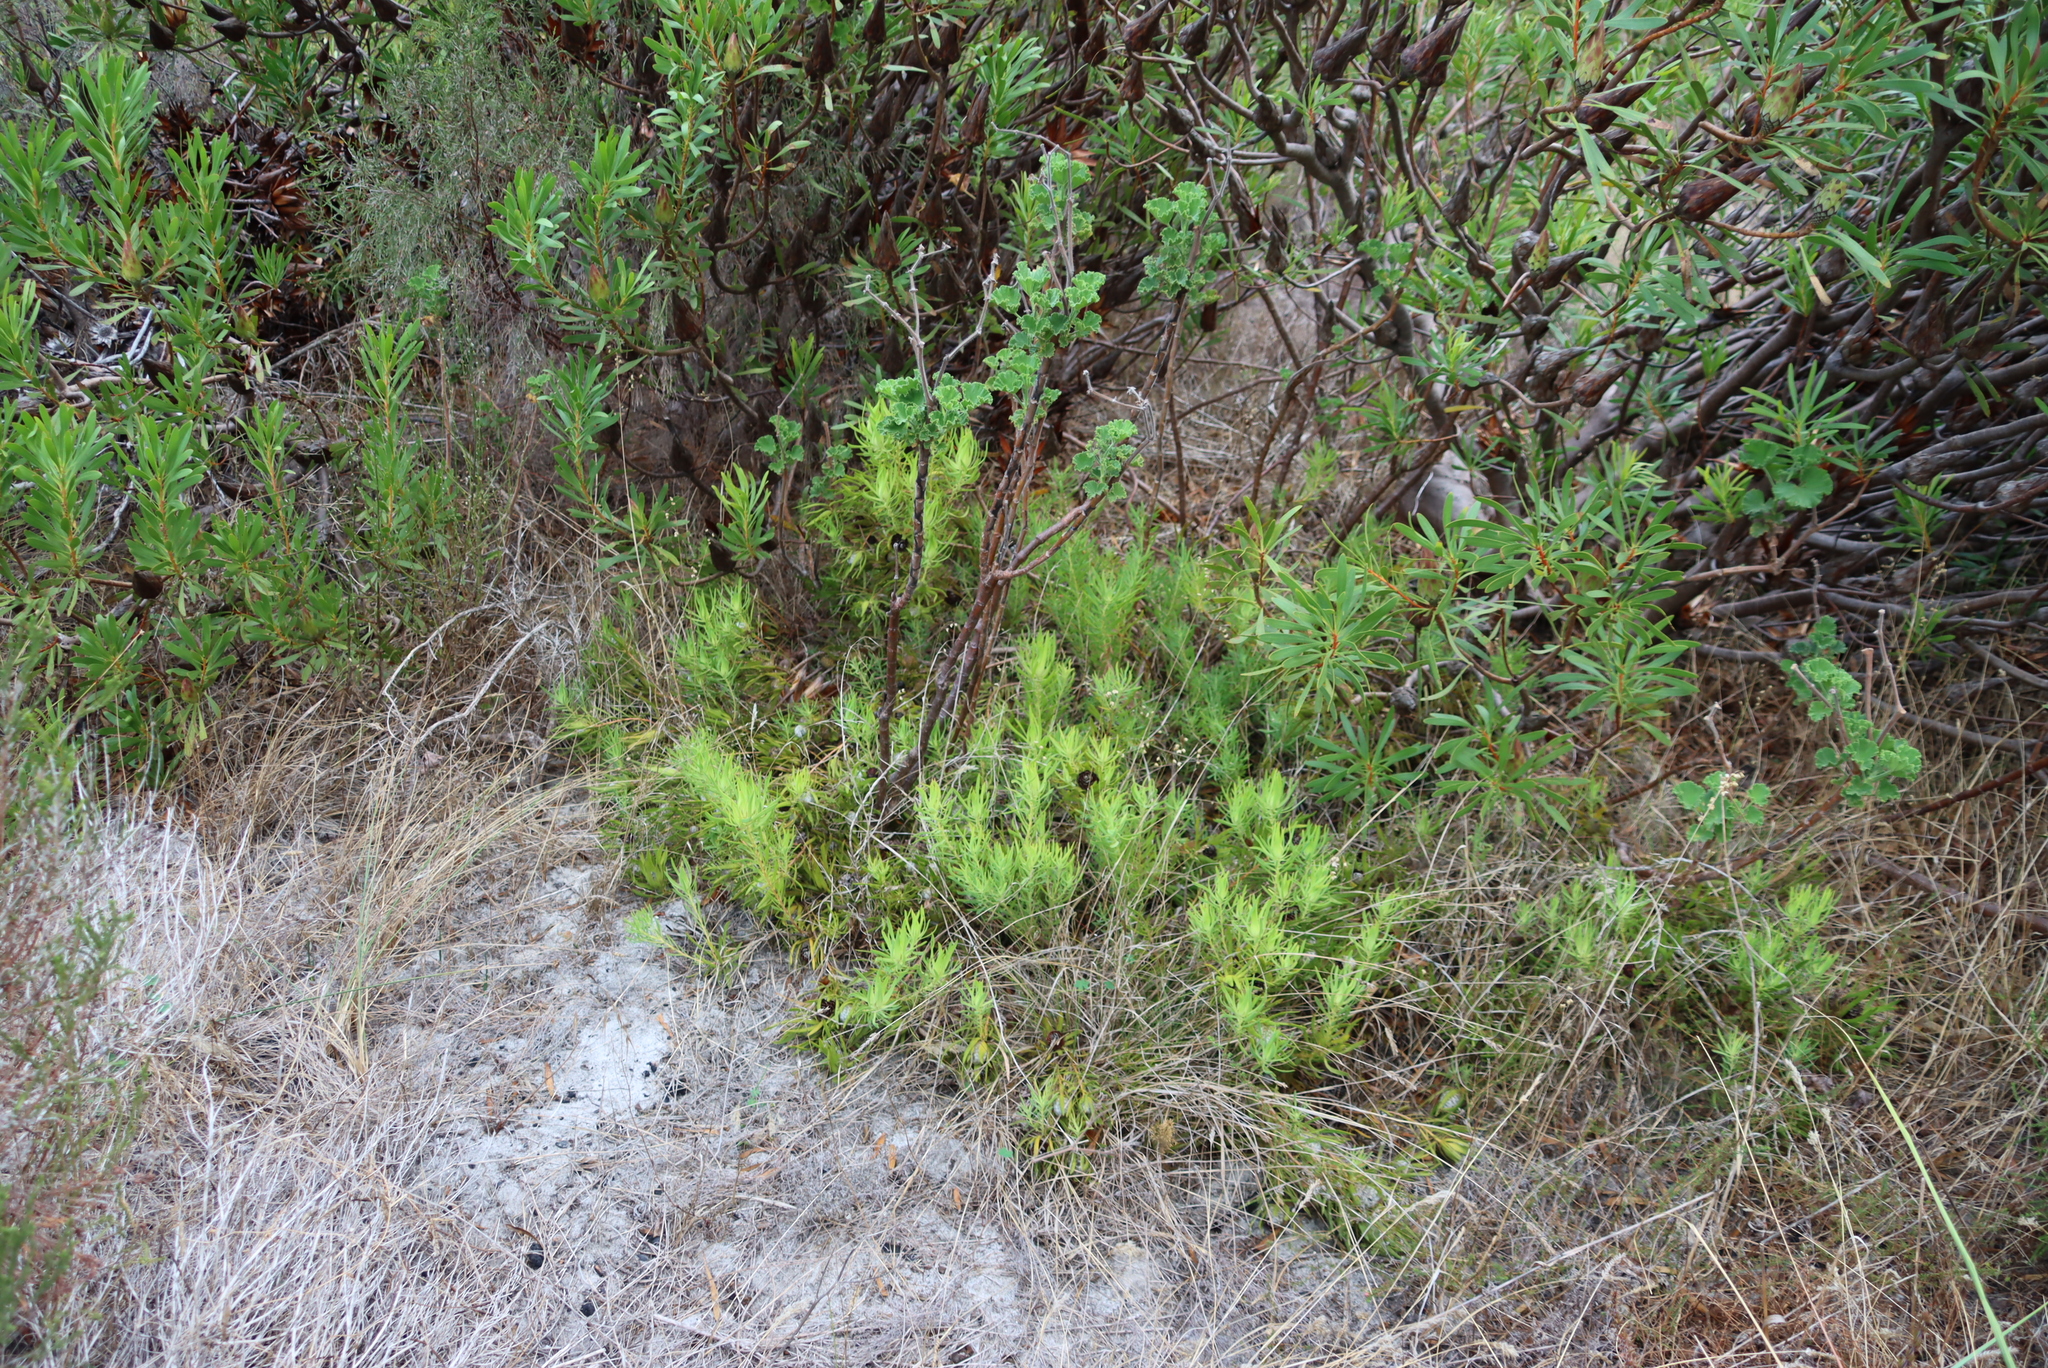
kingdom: Plantae
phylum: Tracheophyta
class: Magnoliopsida
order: Proteales
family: Proteaceae
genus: Leucadendron
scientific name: Leucadendron salignum
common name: Common sunshine conebush
